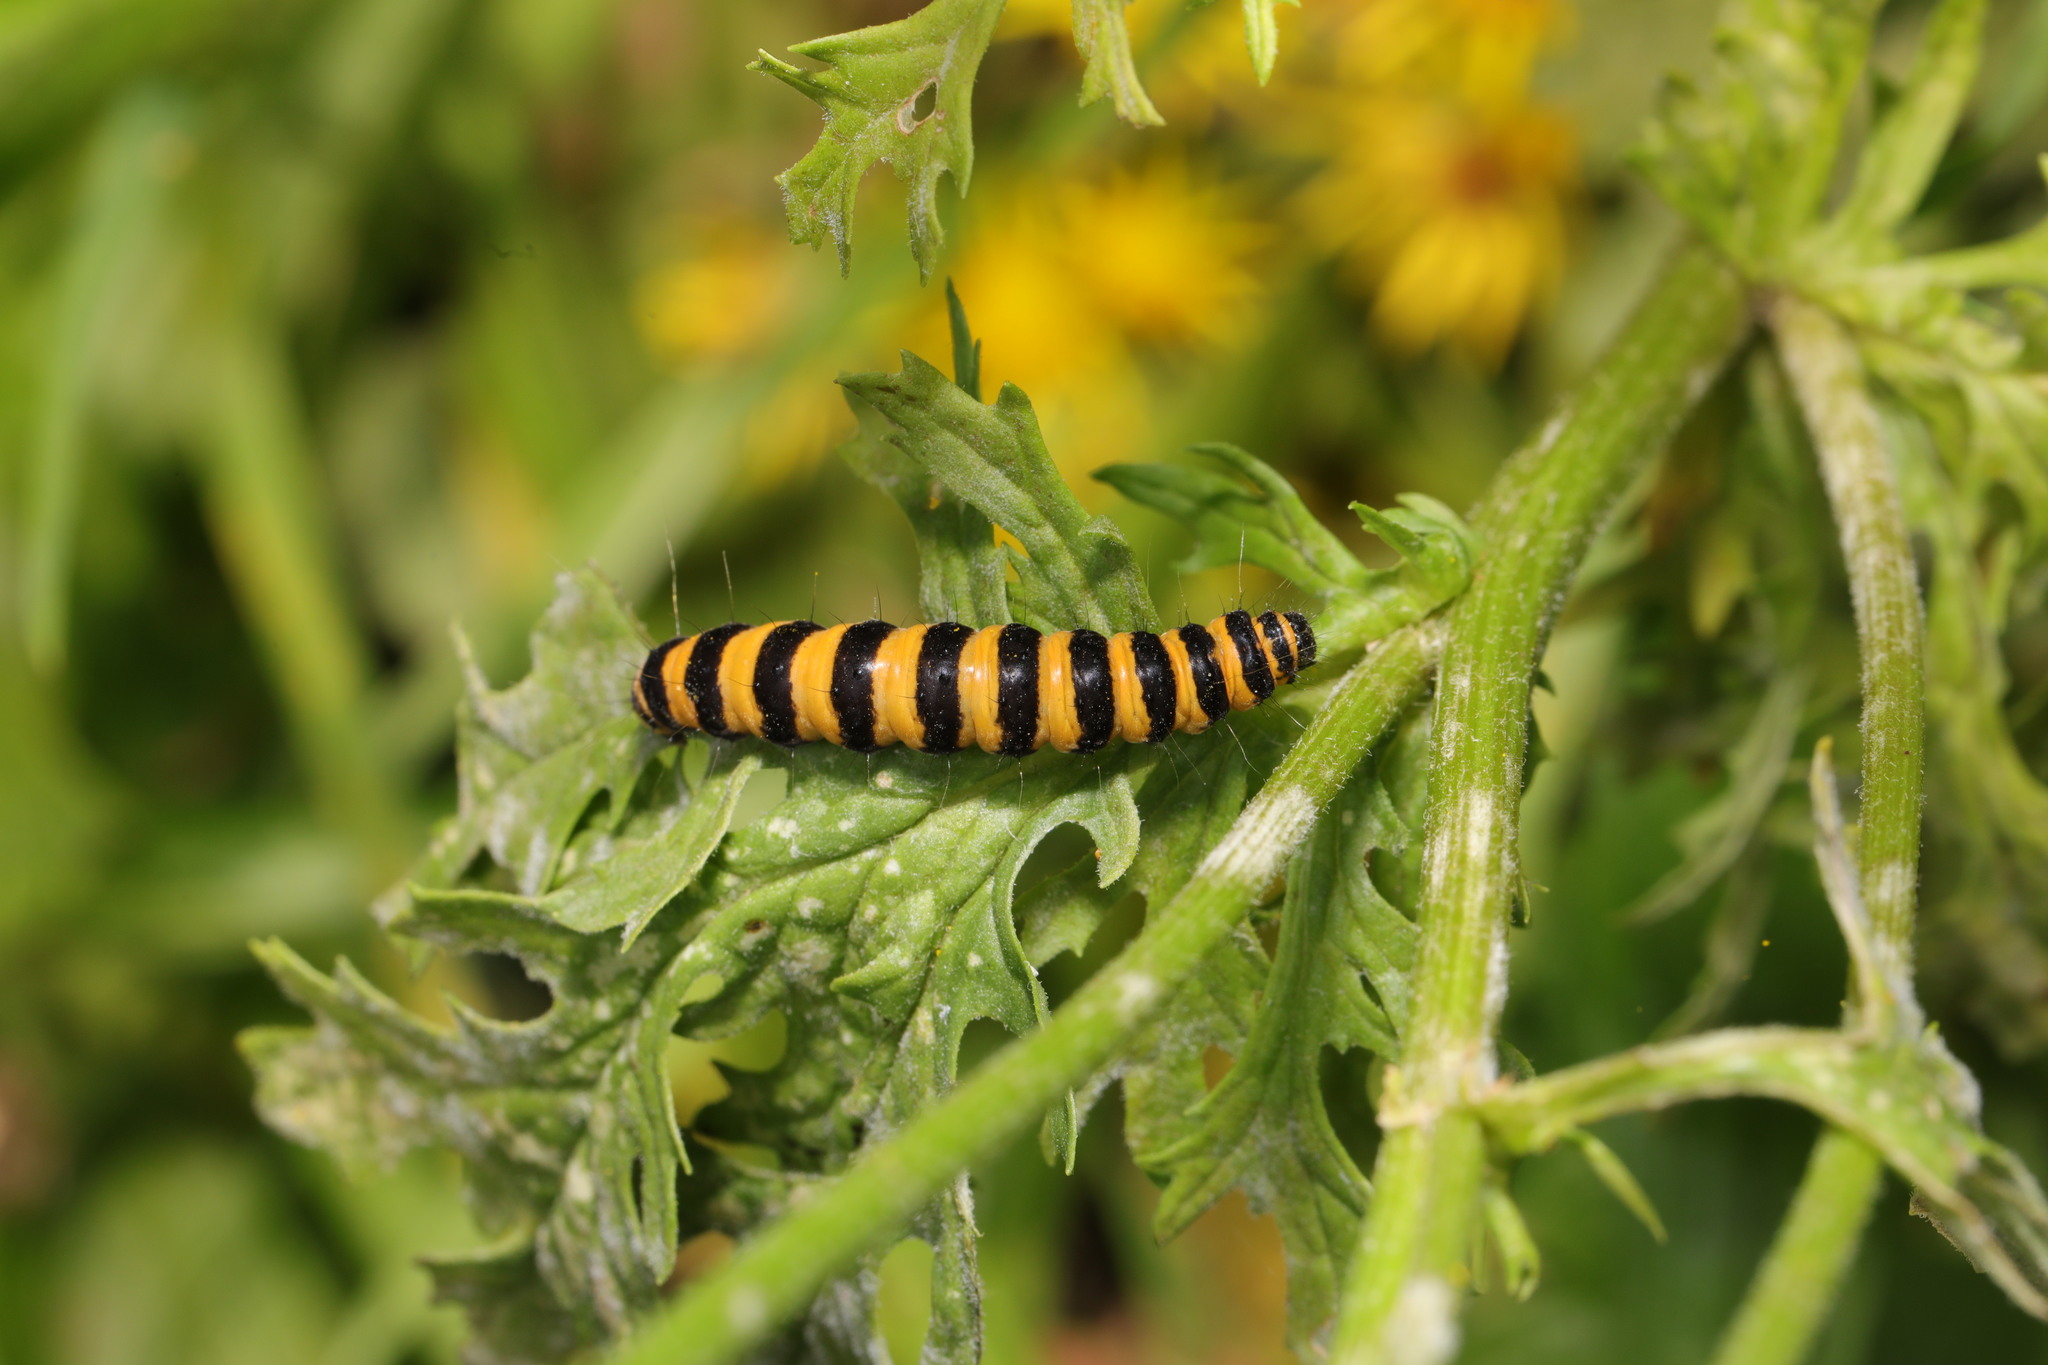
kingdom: Animalia
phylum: Arthropoda
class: Insecta
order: Lepidoptera
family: Erebidae
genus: Tyria
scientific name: Tyria jacobaeae
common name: Cinnabar
